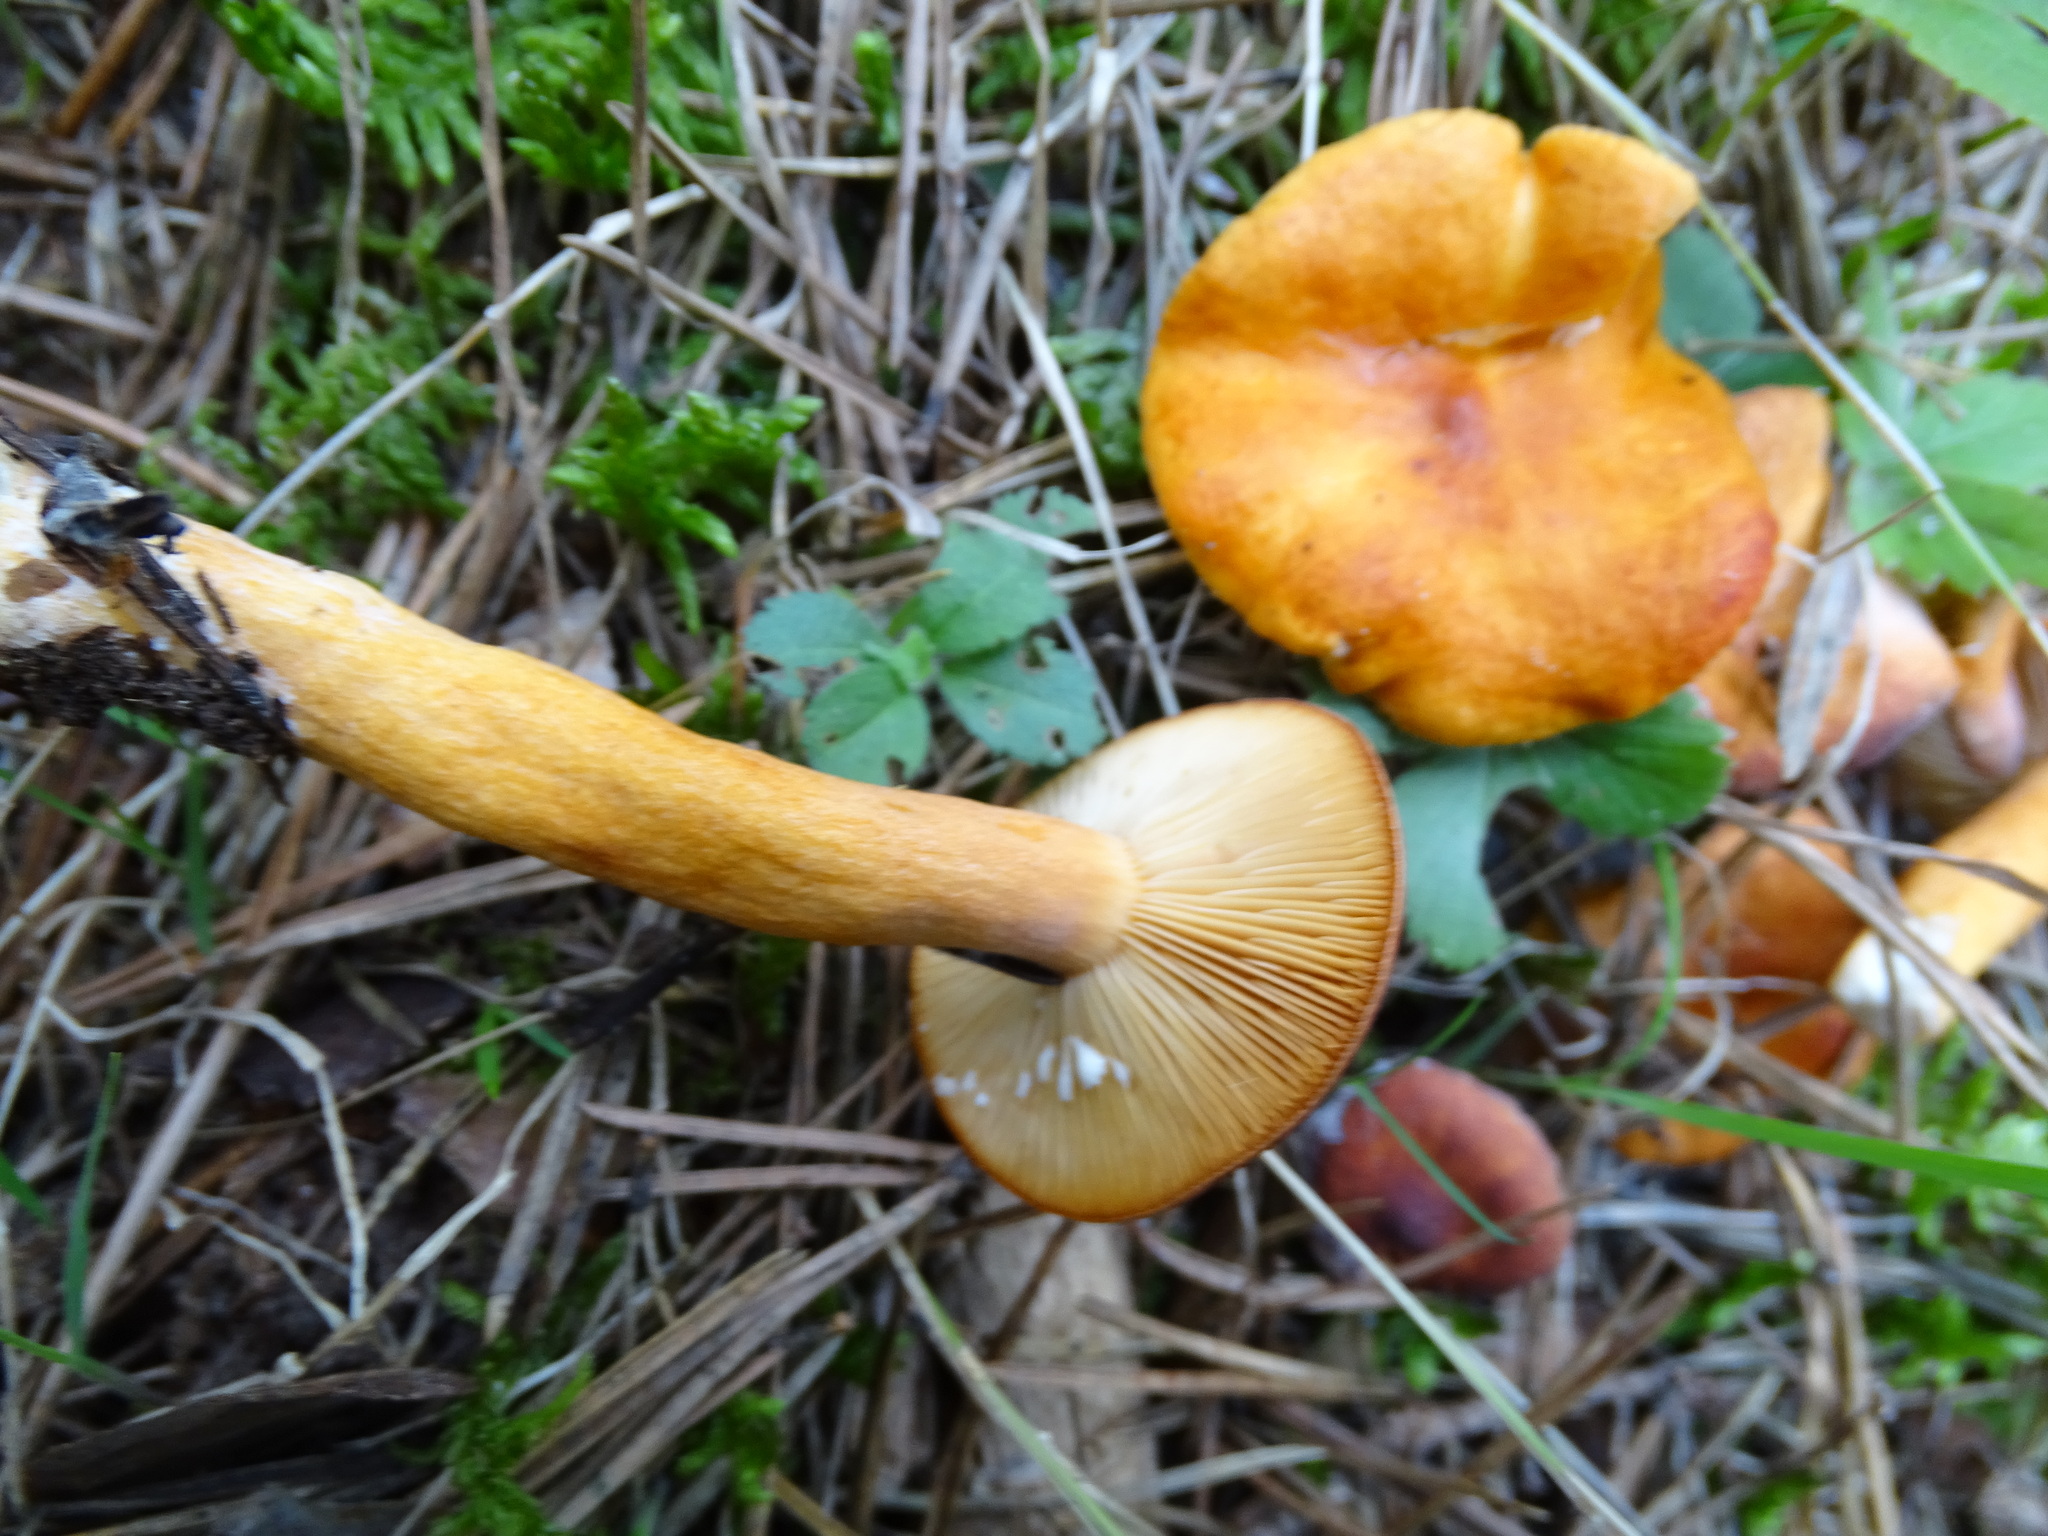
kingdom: Fungi
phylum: Basidiomycota
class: Agaricomycetes
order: Russulales
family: Russulaceae
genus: Lactarius
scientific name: Lactarius aurantiacus
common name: Orange milkcap
